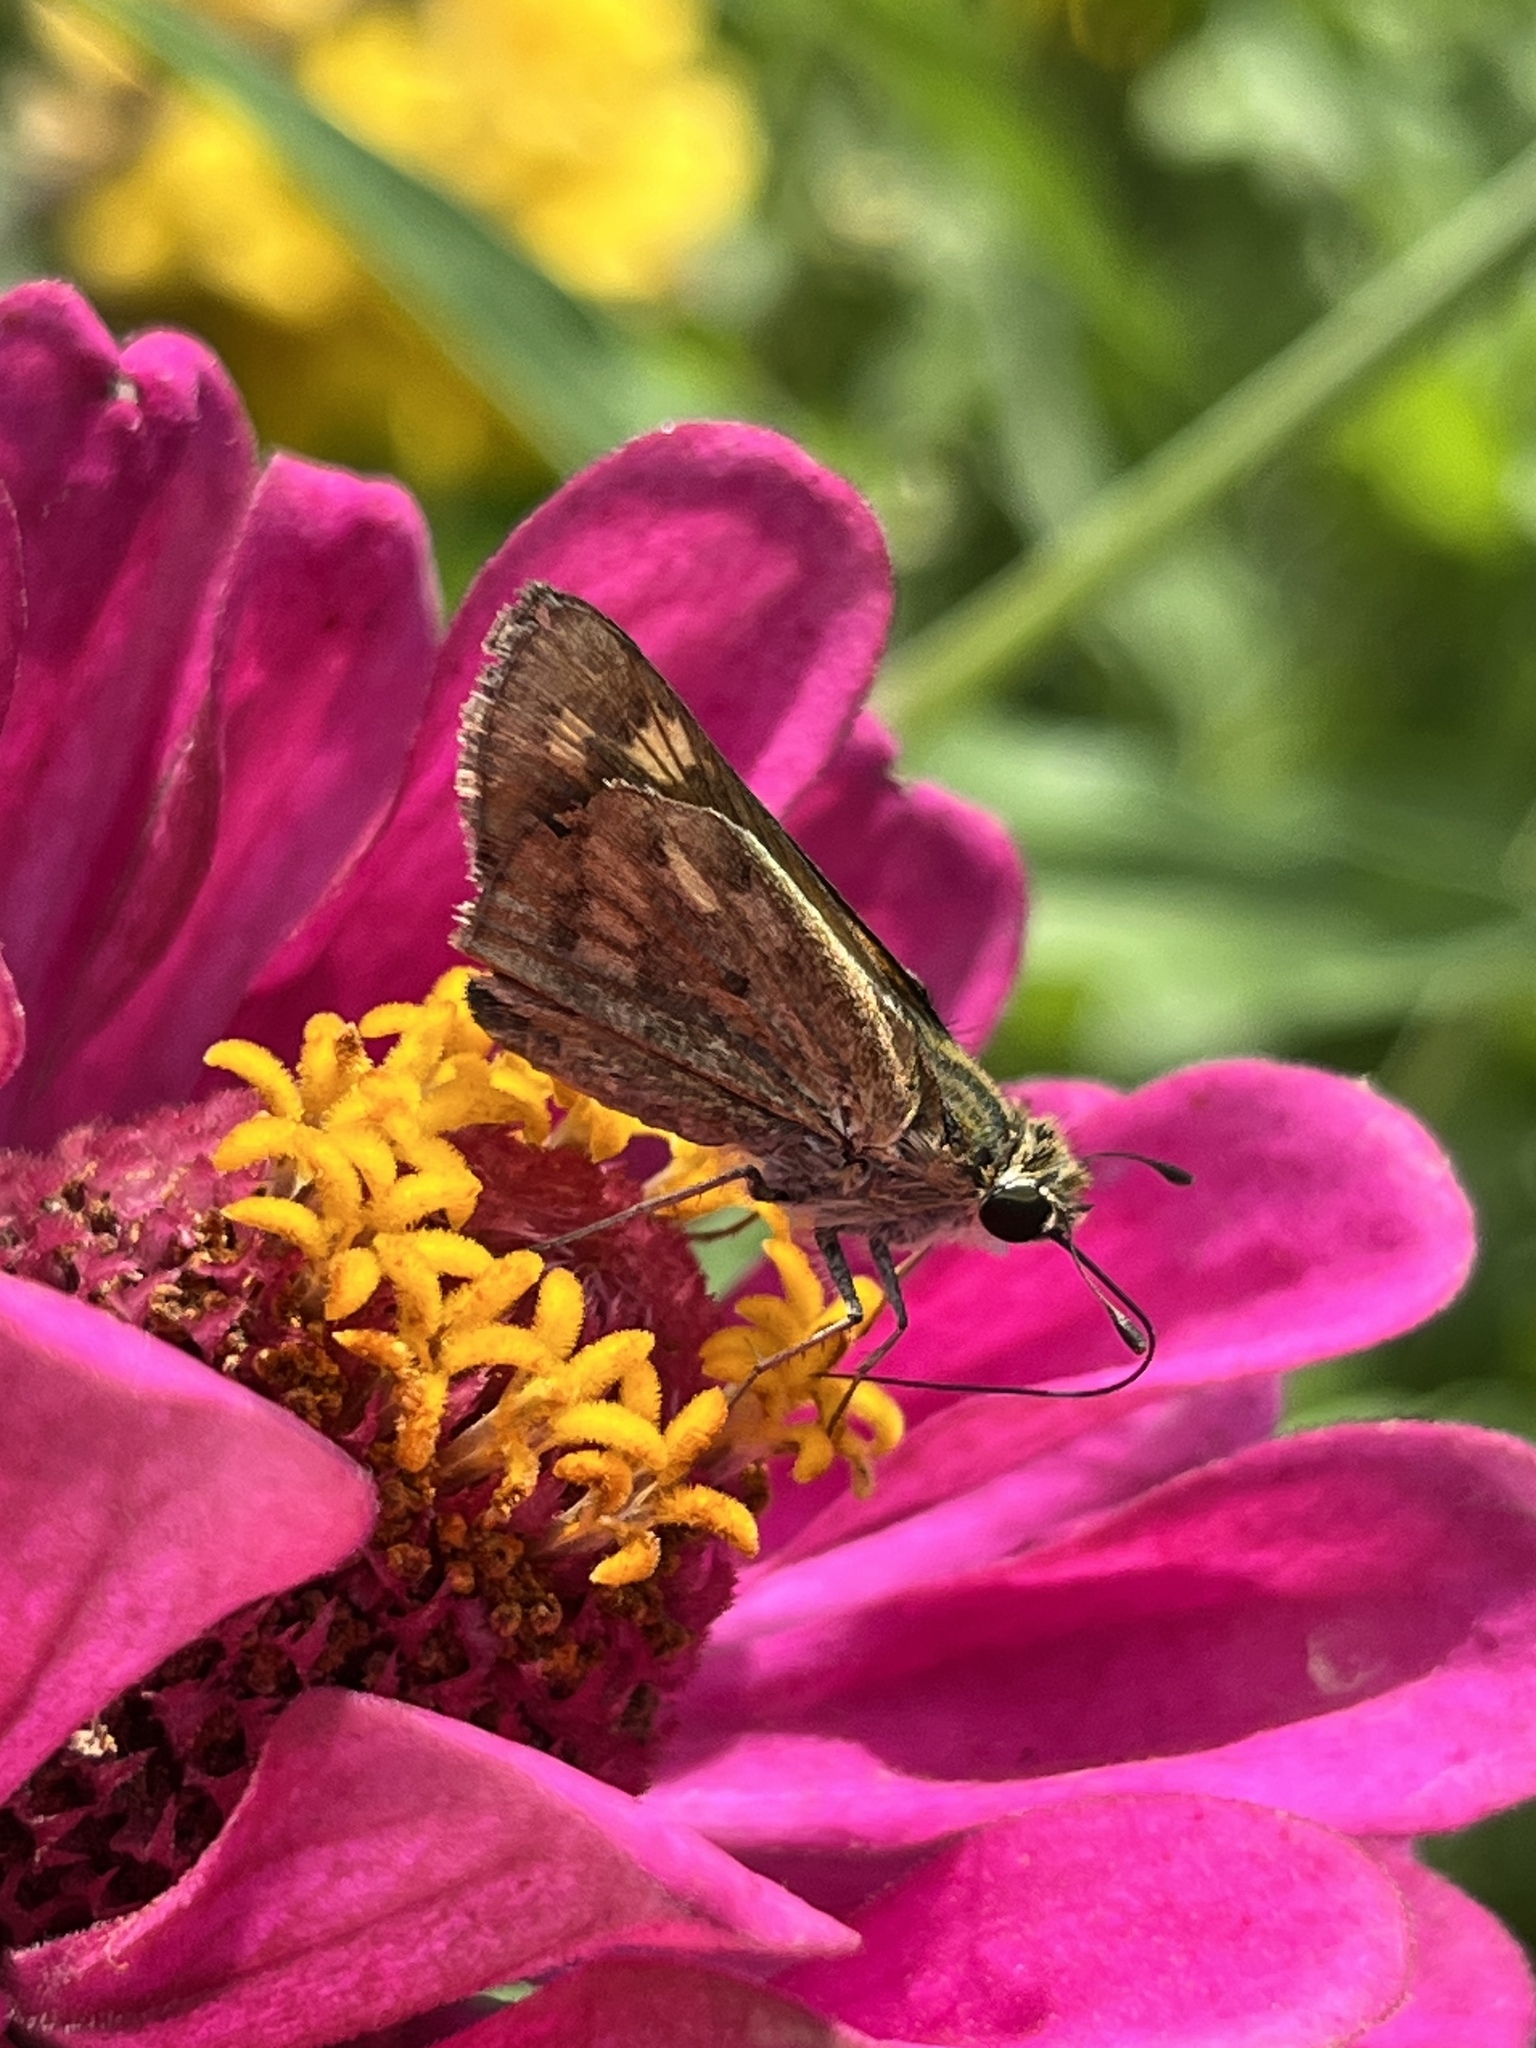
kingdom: Animalia
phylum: Arthropoda
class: Insecta
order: Lepidoptera
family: Hesperiidae
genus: Atalopedes
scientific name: Atalopedes
